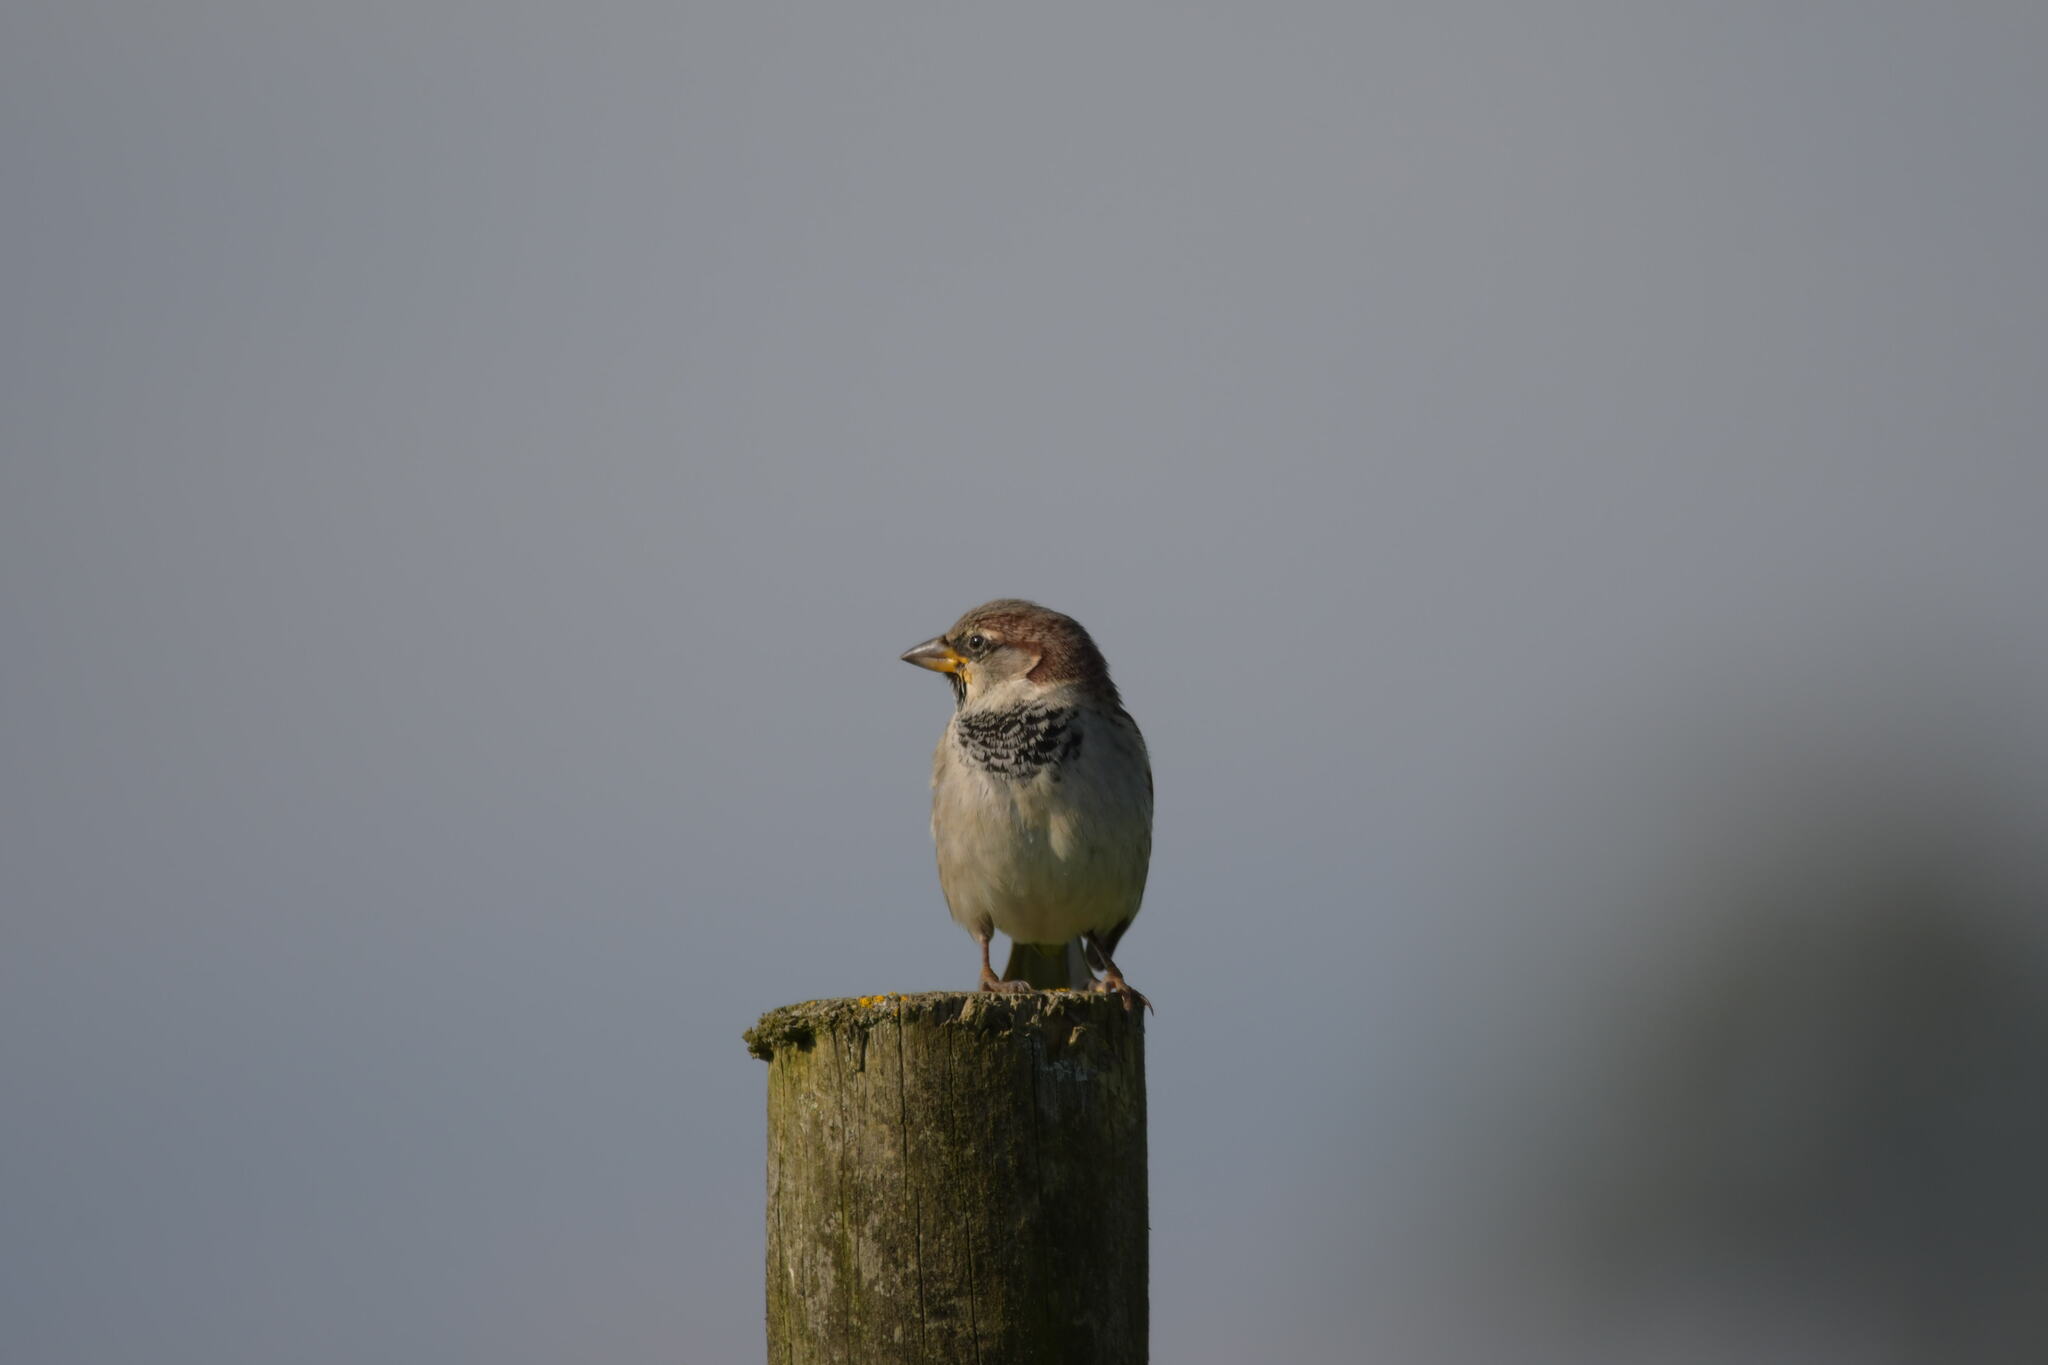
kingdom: Animalia
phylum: Chordata
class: Aves
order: Passeriformes
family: Passeridae
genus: Passer
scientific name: Passer domesticus
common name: House sparrow
